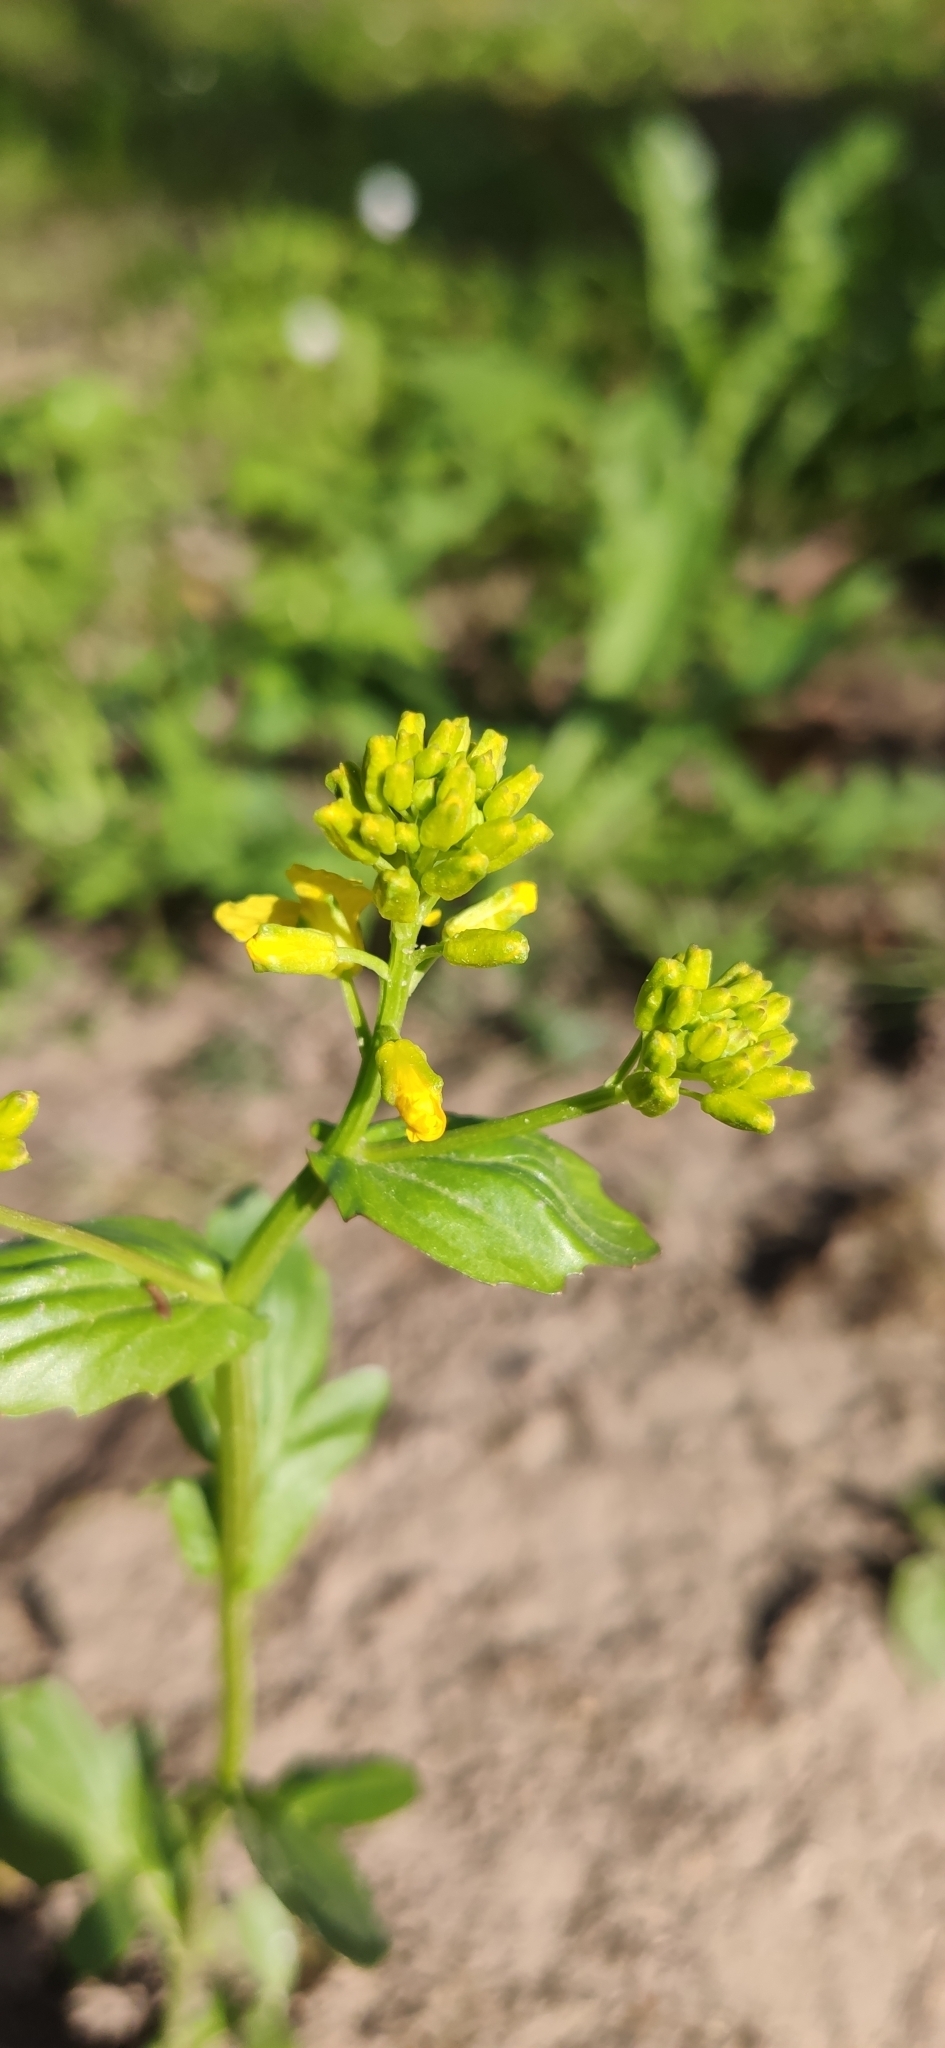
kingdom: Plantae
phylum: Tracheophyta
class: Magnoliopsida
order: Brassicales
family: Brassicaceae
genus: Barbarea
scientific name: Barbarea vulgaris
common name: Cressy-greens
